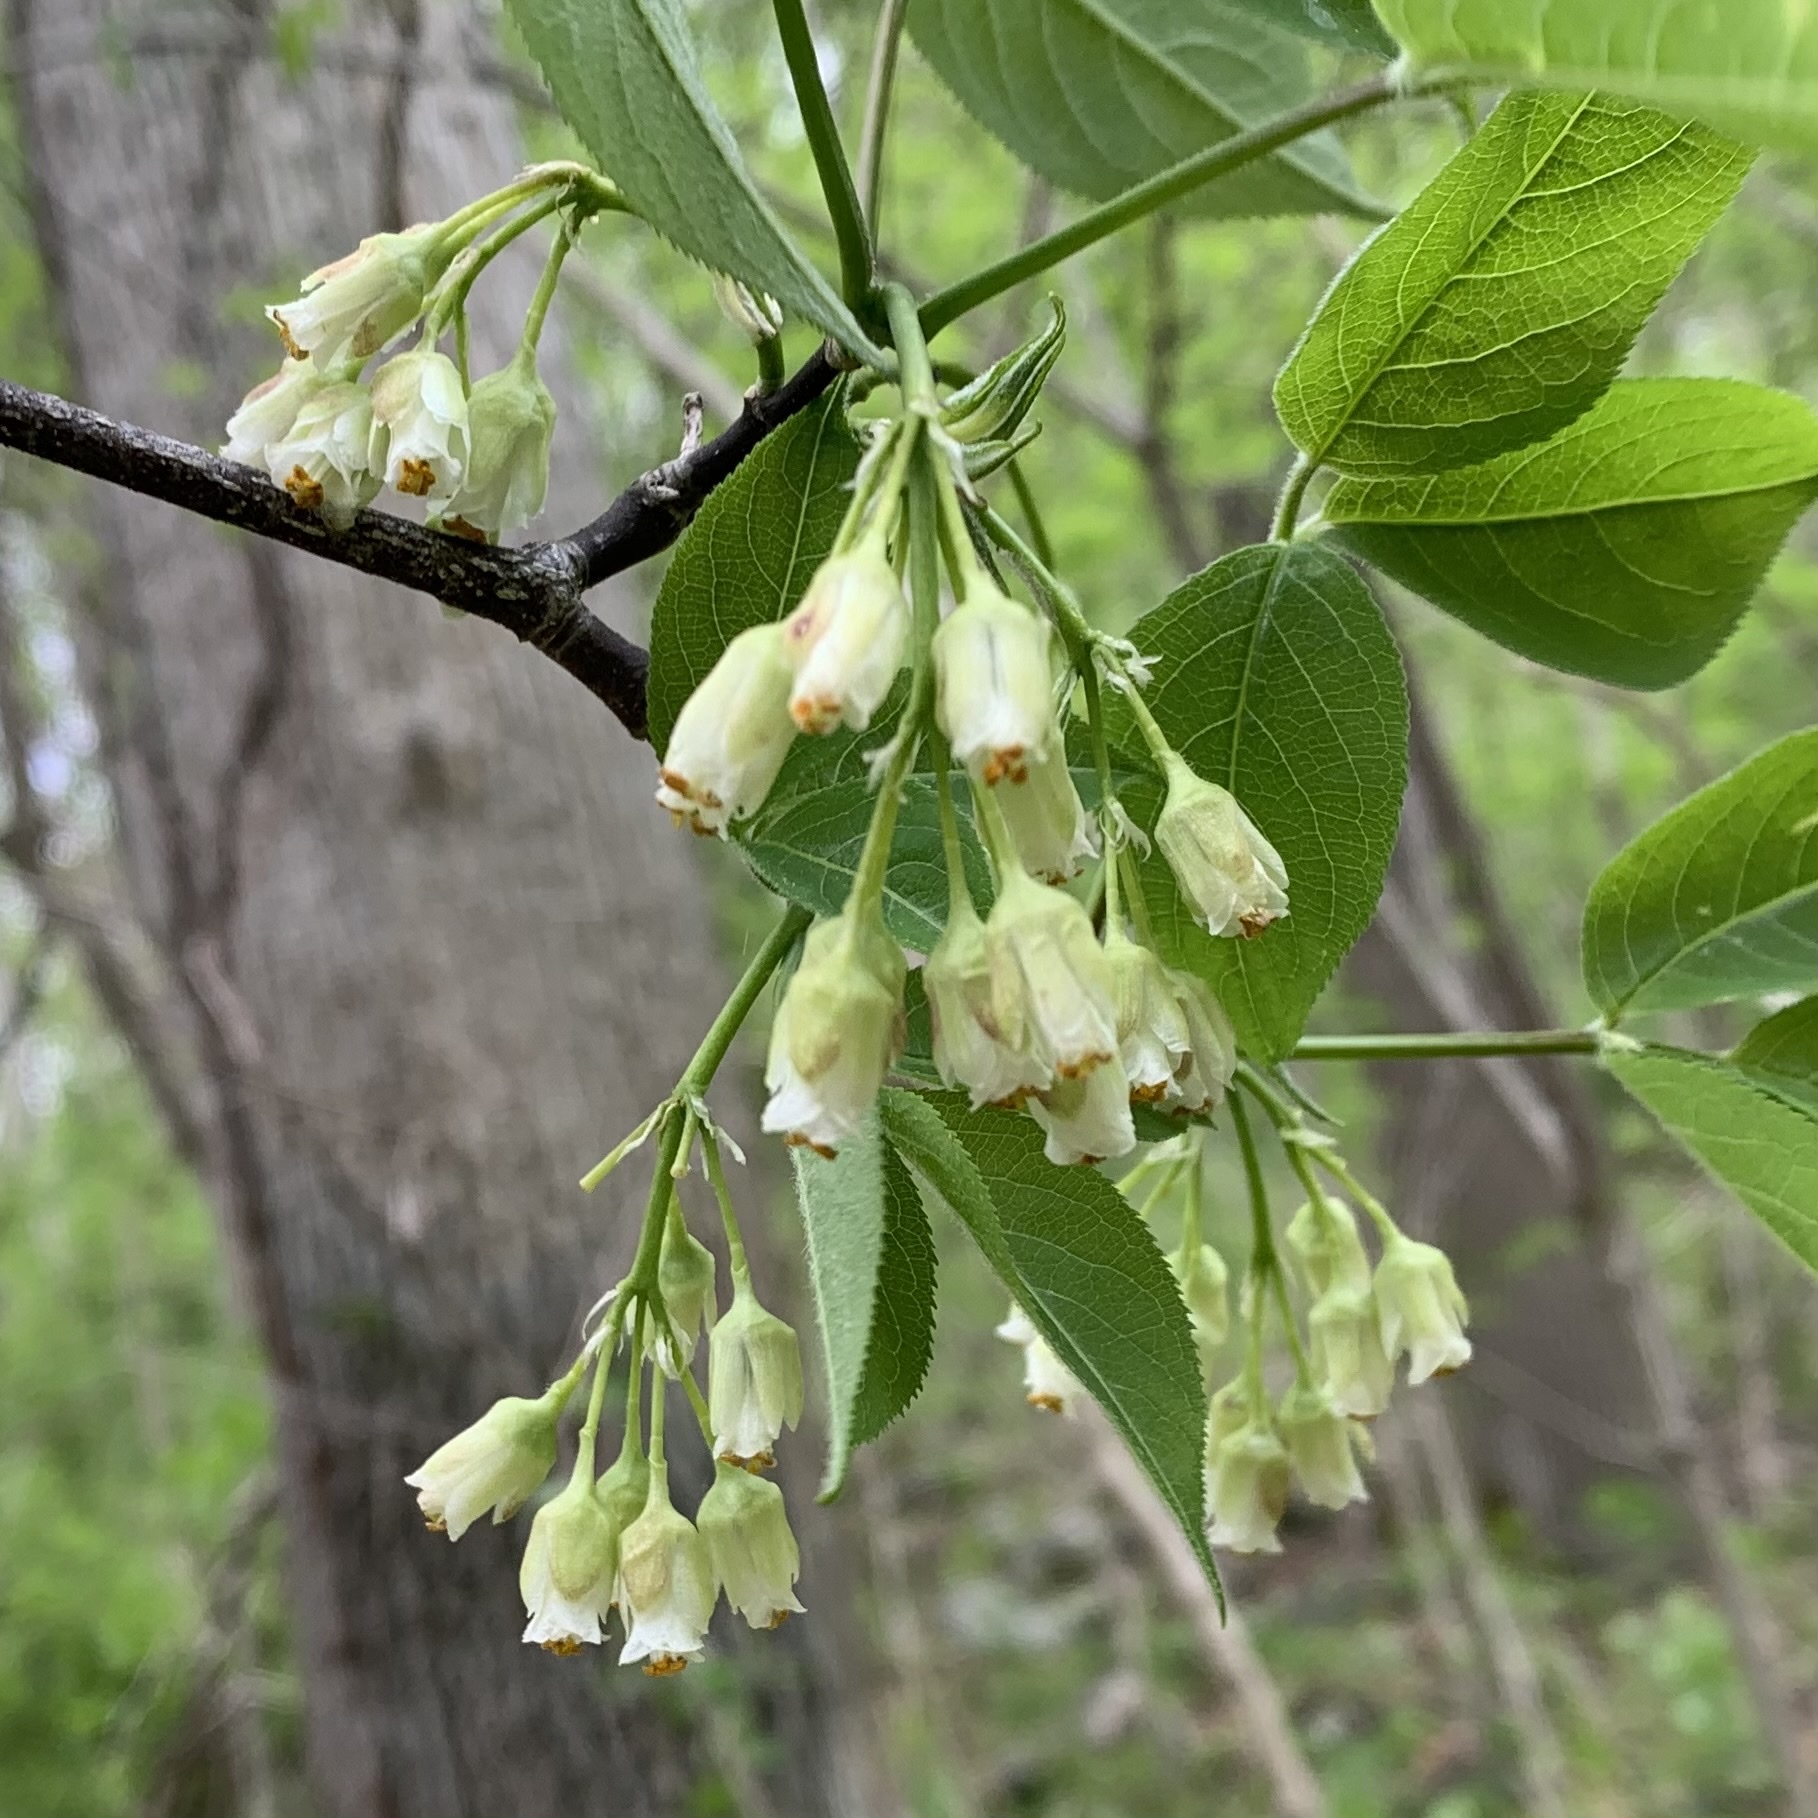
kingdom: Plantae
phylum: Tracheophyta
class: Magnoliopsida
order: Crossosomatales
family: Staphyleaceae
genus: Staphylea
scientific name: Staphylea trifolia
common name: American bladdernut
